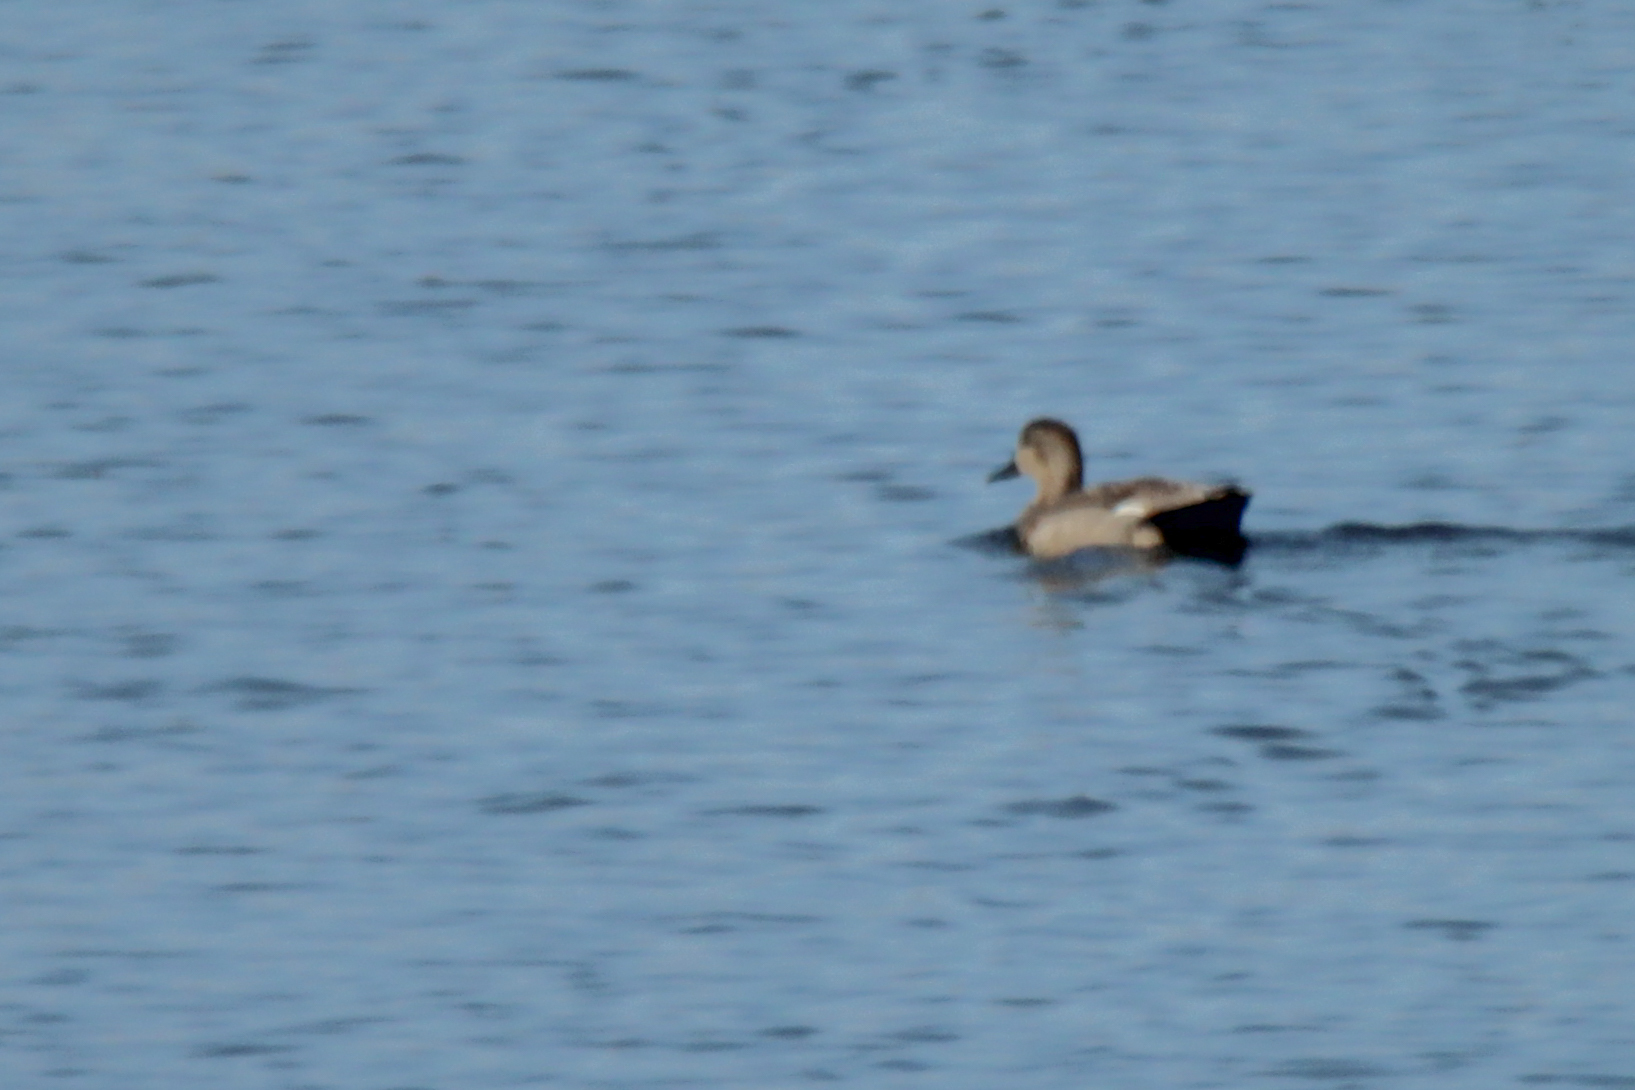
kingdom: Animalia
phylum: Chordata
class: Aves
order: Anseriformes
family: Anatidae
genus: Mareca
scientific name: Mareca strepera
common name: Gadwall
